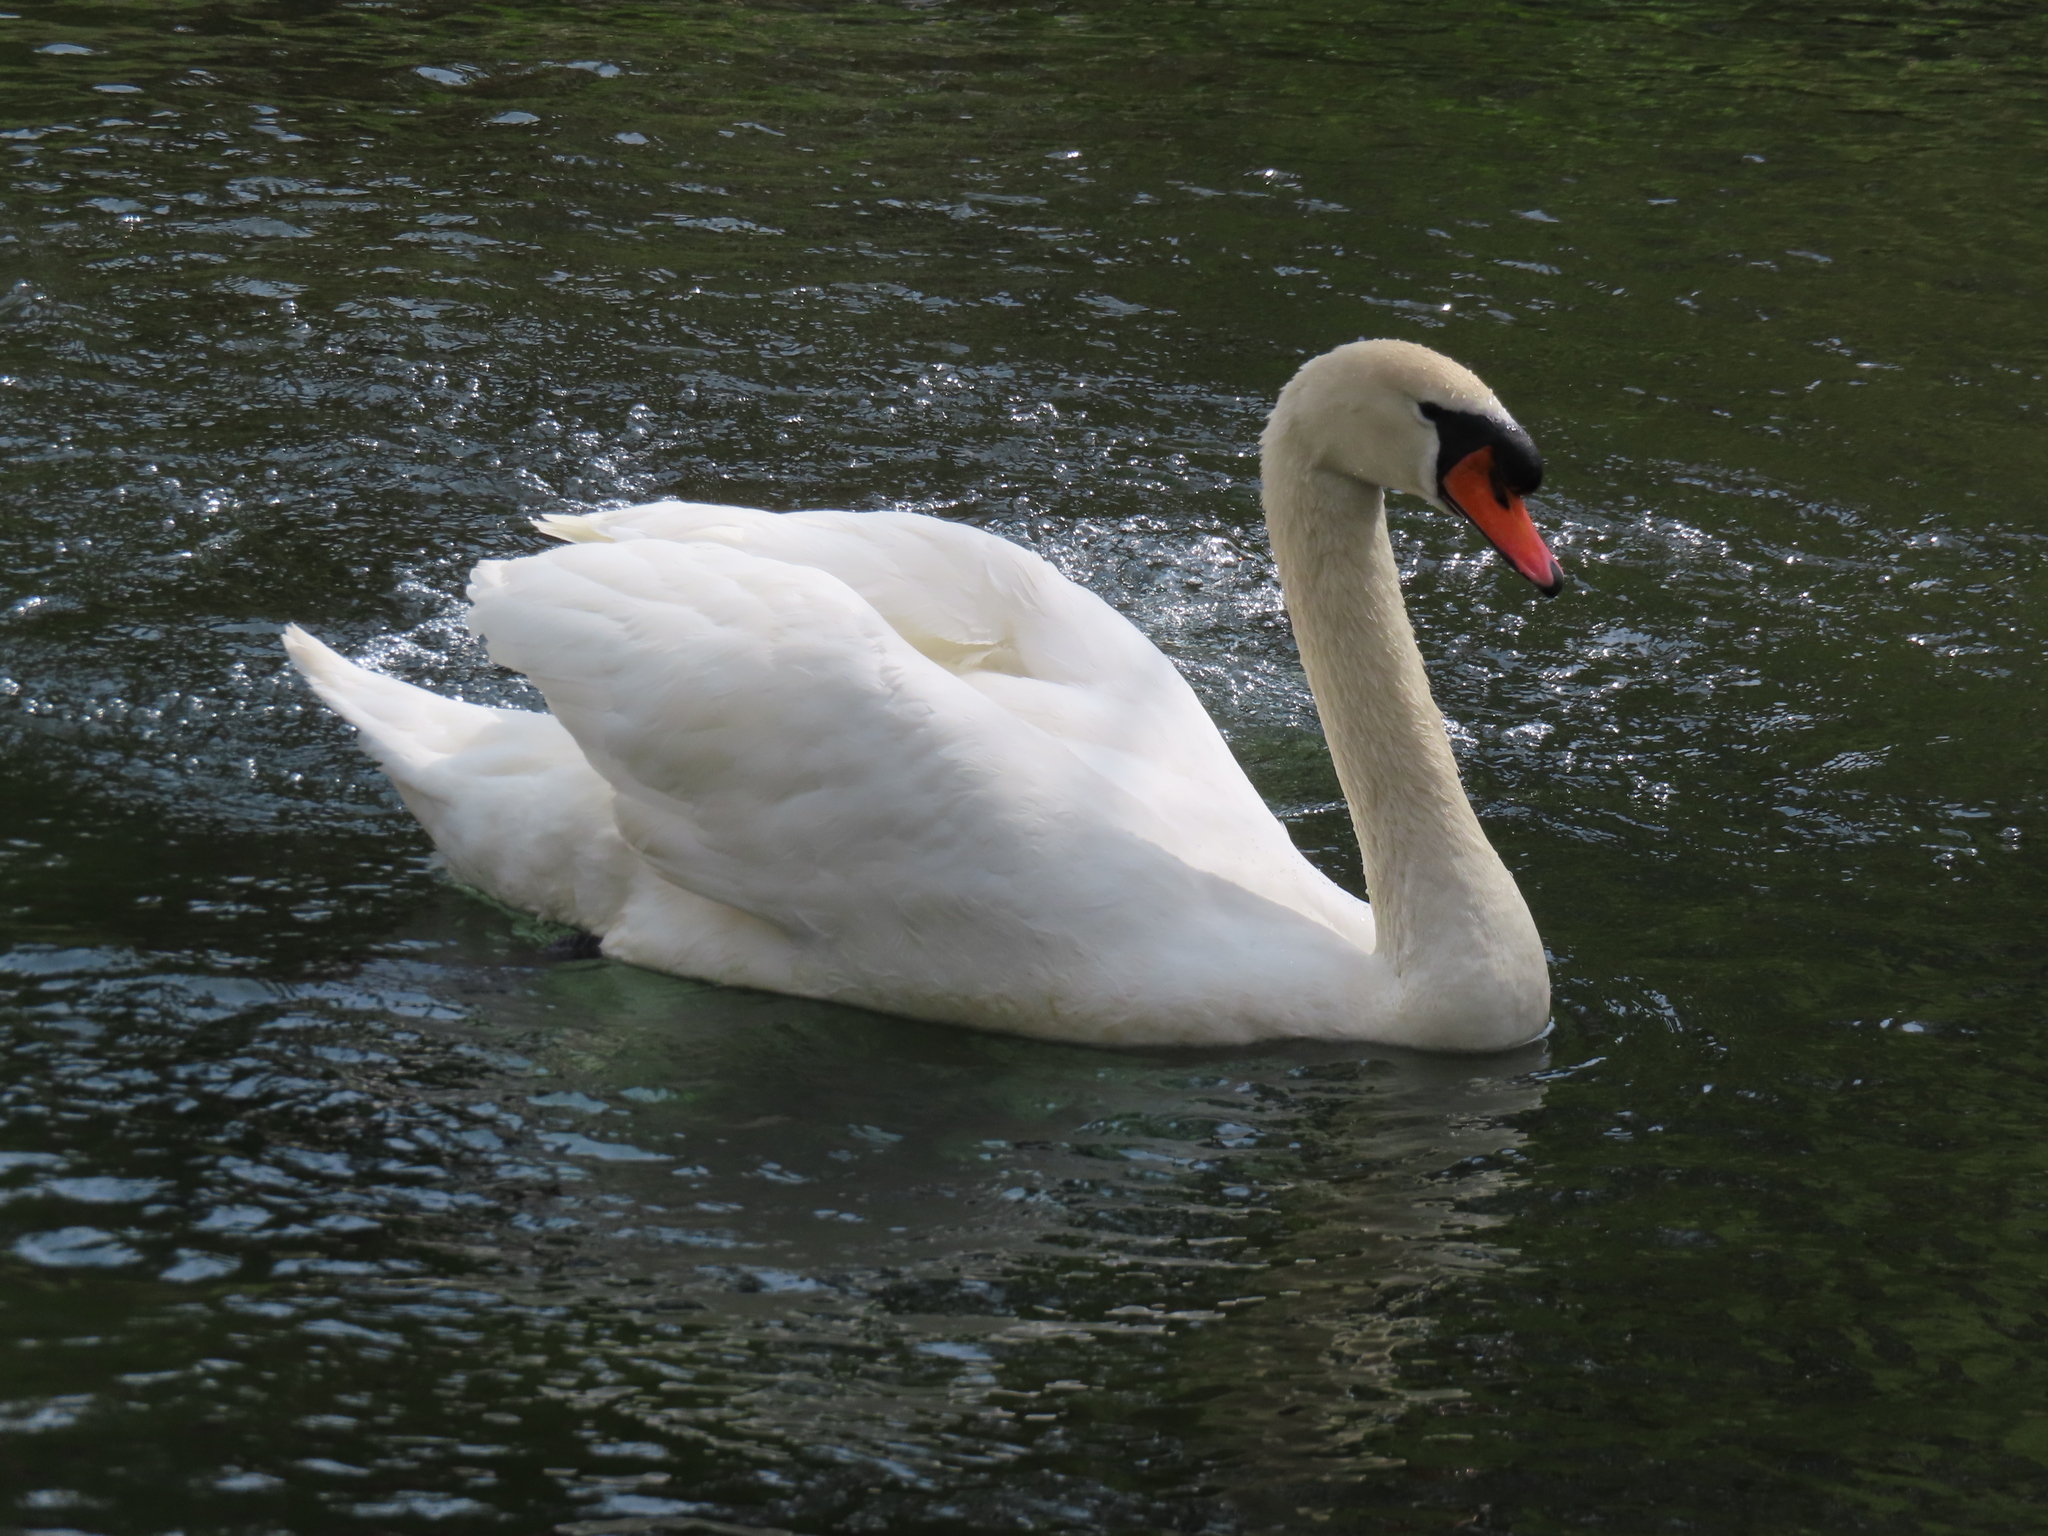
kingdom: Animalia
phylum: Chordata
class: Aves
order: Anseriformes
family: Anatidae
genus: Cygnus
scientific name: Cygnus olor
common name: Mute swan
